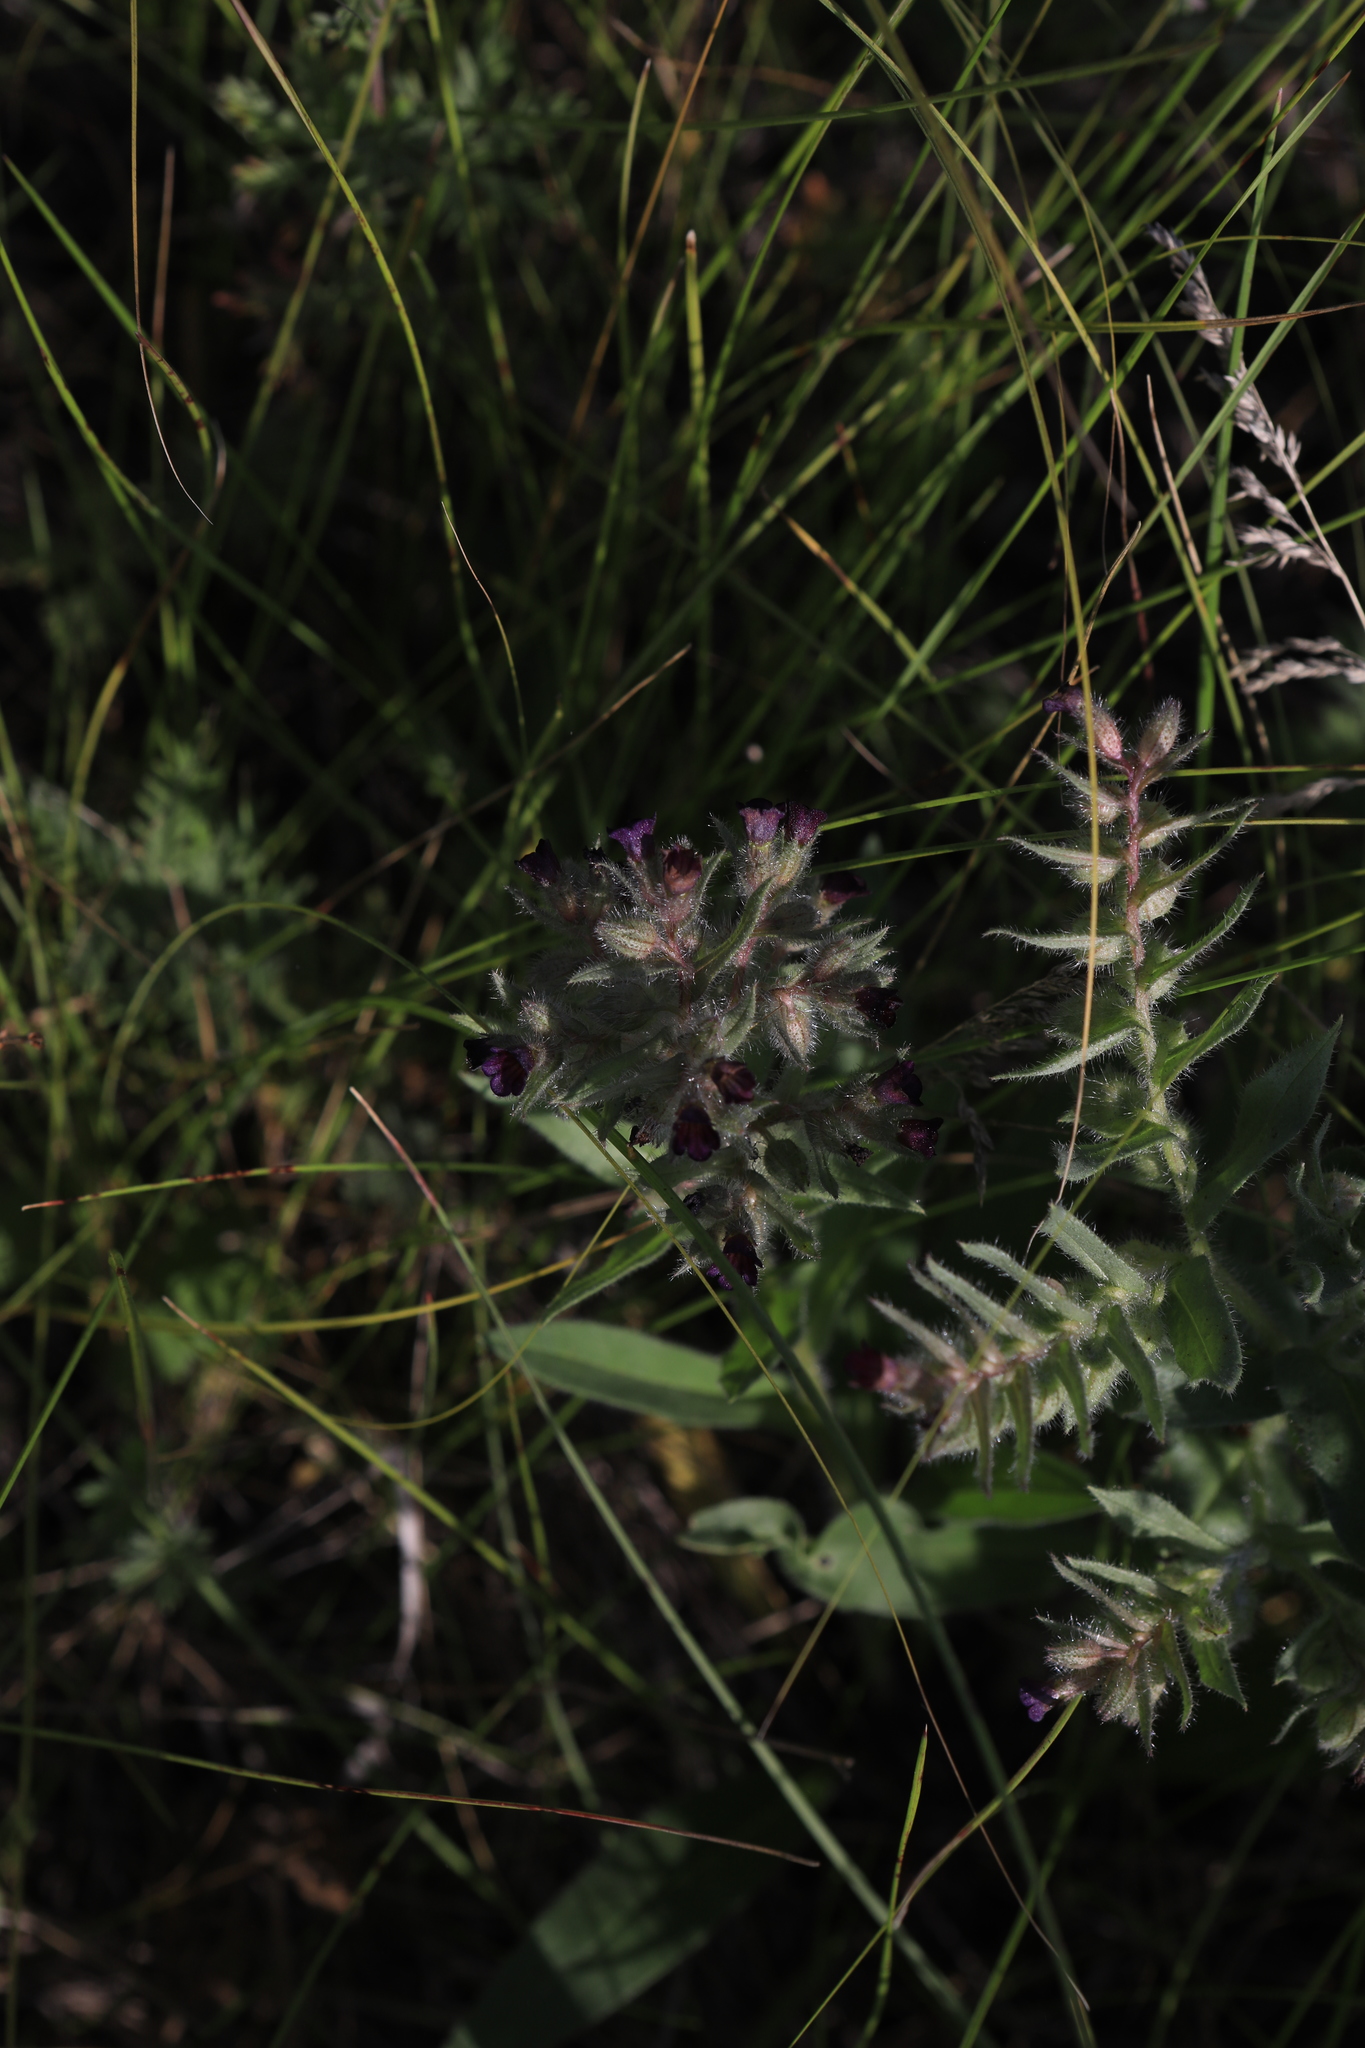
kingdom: Plantae
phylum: Tracheophyta
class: Magnoliopsida
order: Boraginales
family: Boraginaceae
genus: Nonea
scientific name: Nonea pulla
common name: Brown nonea
